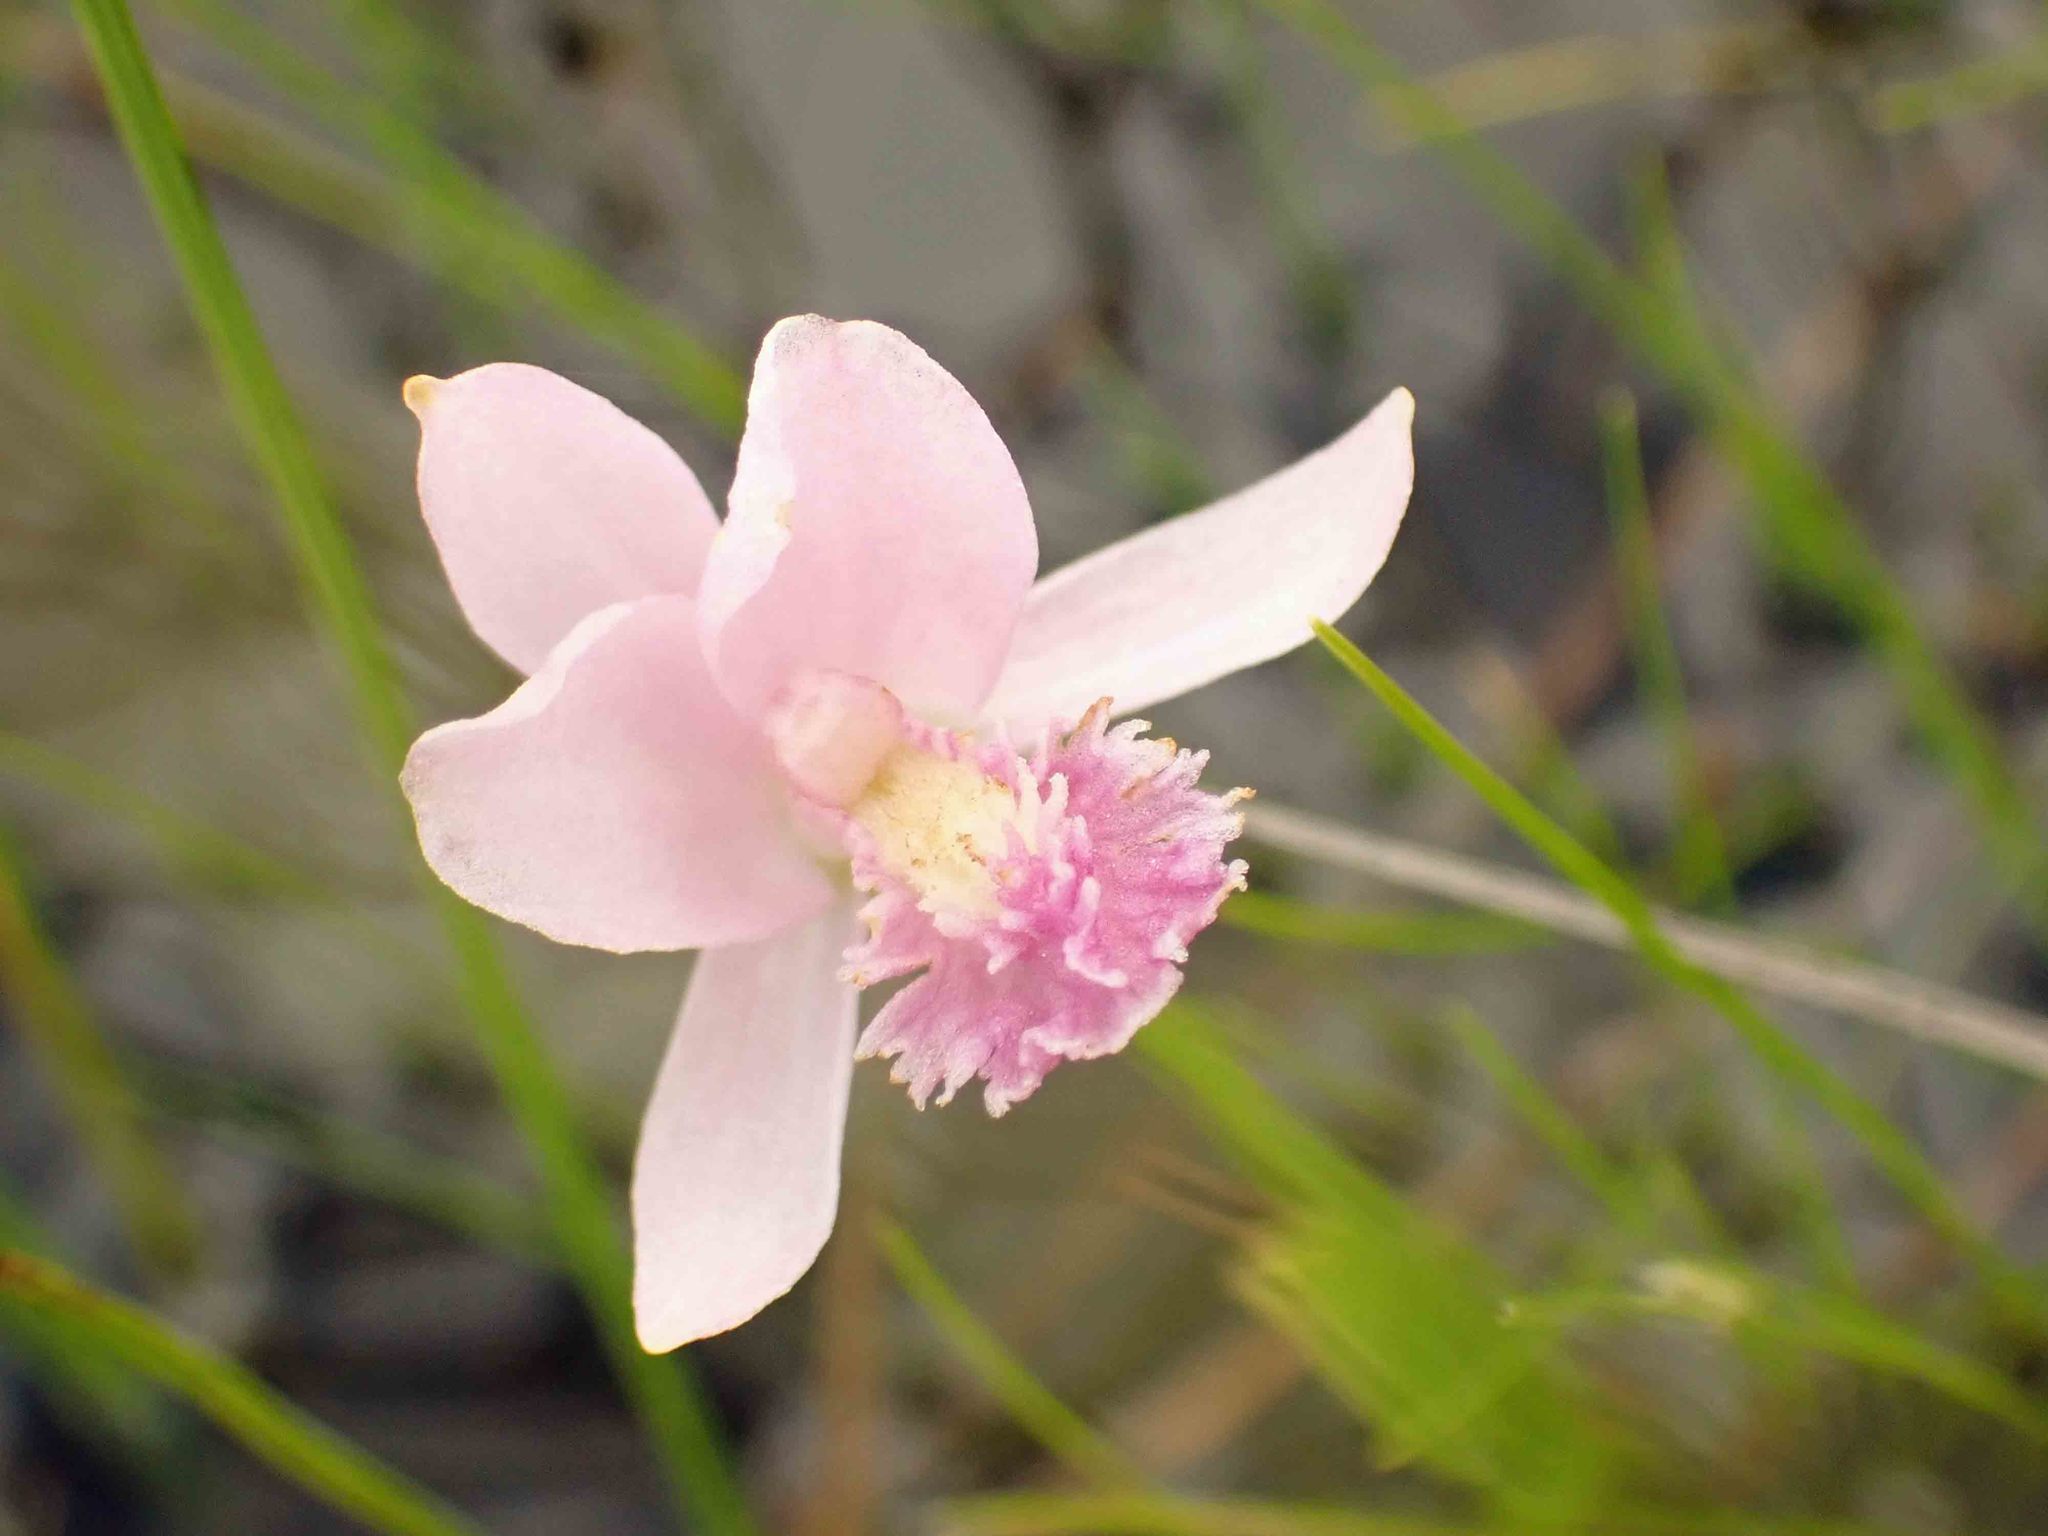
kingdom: Plantae
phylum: Tracheophyta
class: Liliopsida
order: Asparagales
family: Orchidaceae
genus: Pogonia
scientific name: Pogonia ophioglossoides
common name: Rose pogonia
